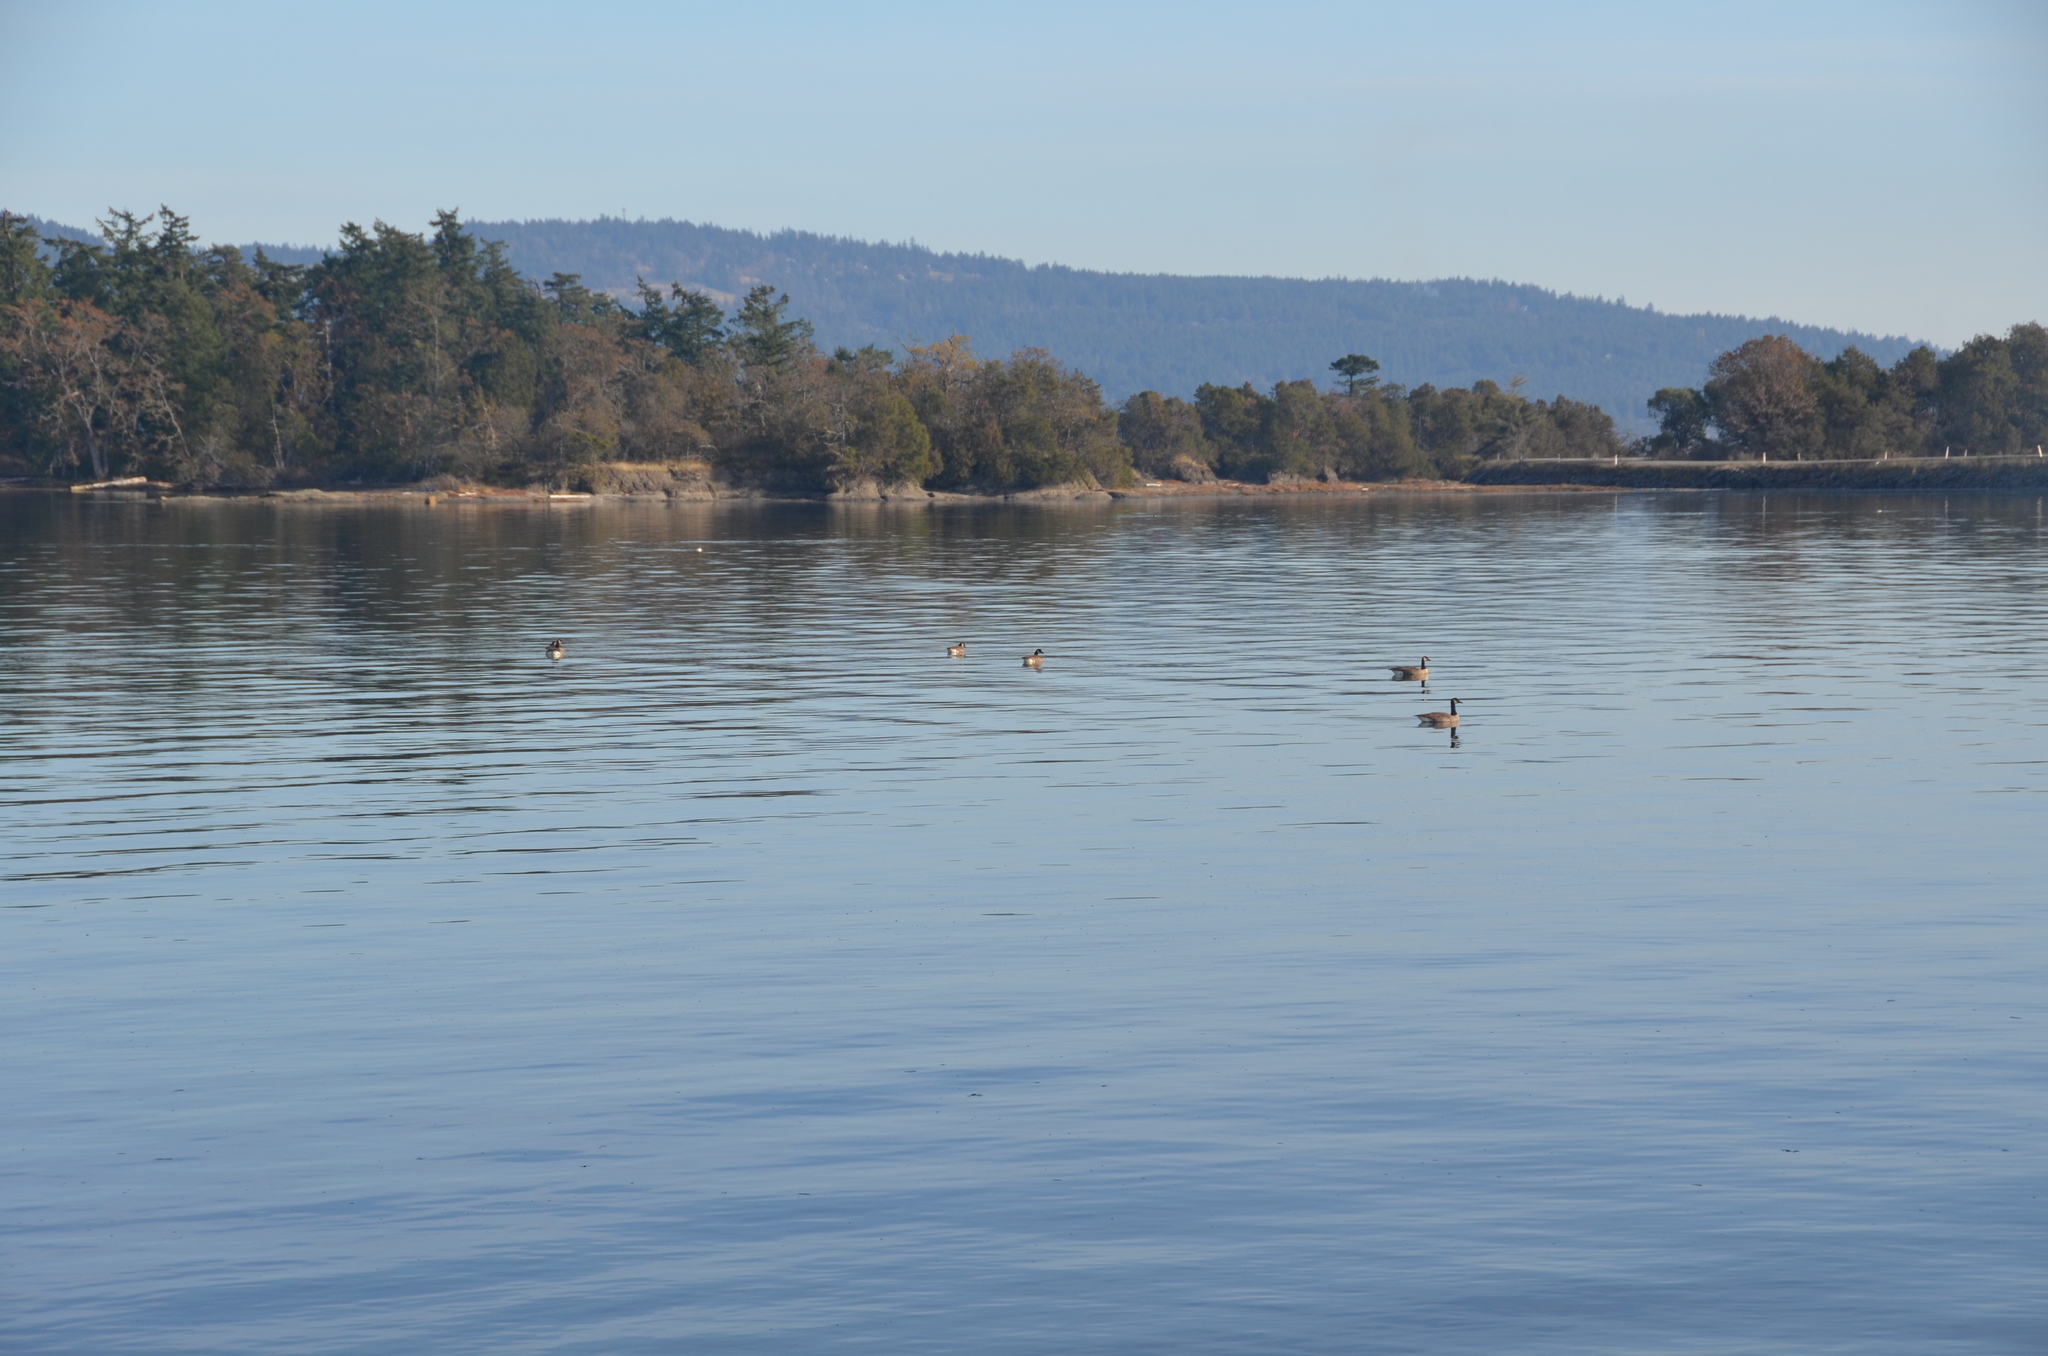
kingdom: Animalia
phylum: Chordata
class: Aves
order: Anseriformes
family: Anatidae
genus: Branta
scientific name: Branta canadensis
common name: Canada goose
